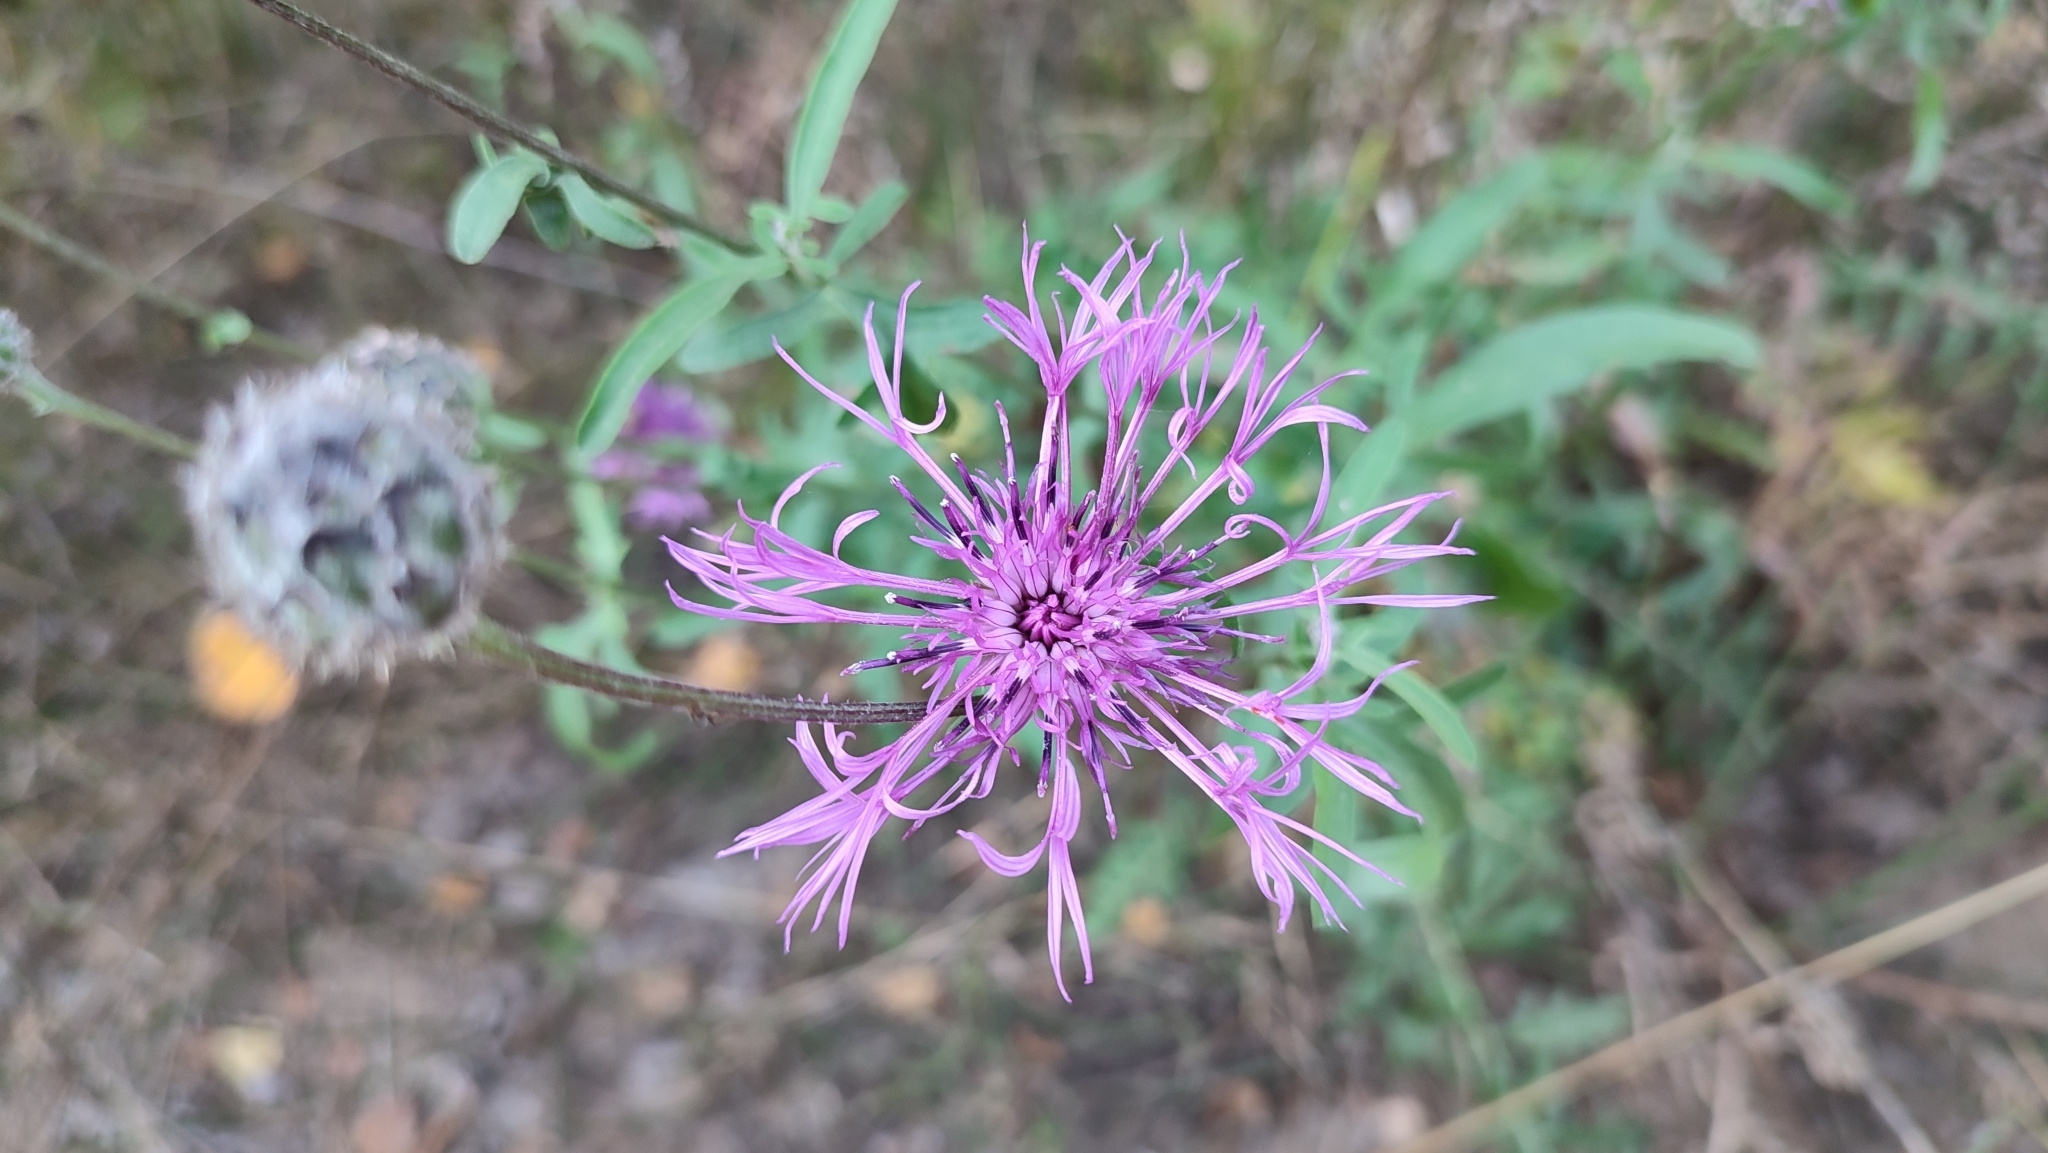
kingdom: Plantae
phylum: Tracheophyta
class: Magnoliopsida
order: Asterales
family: Asteraceae
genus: Centaurea
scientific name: Centaurea scabiosa
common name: Greater knapweed
